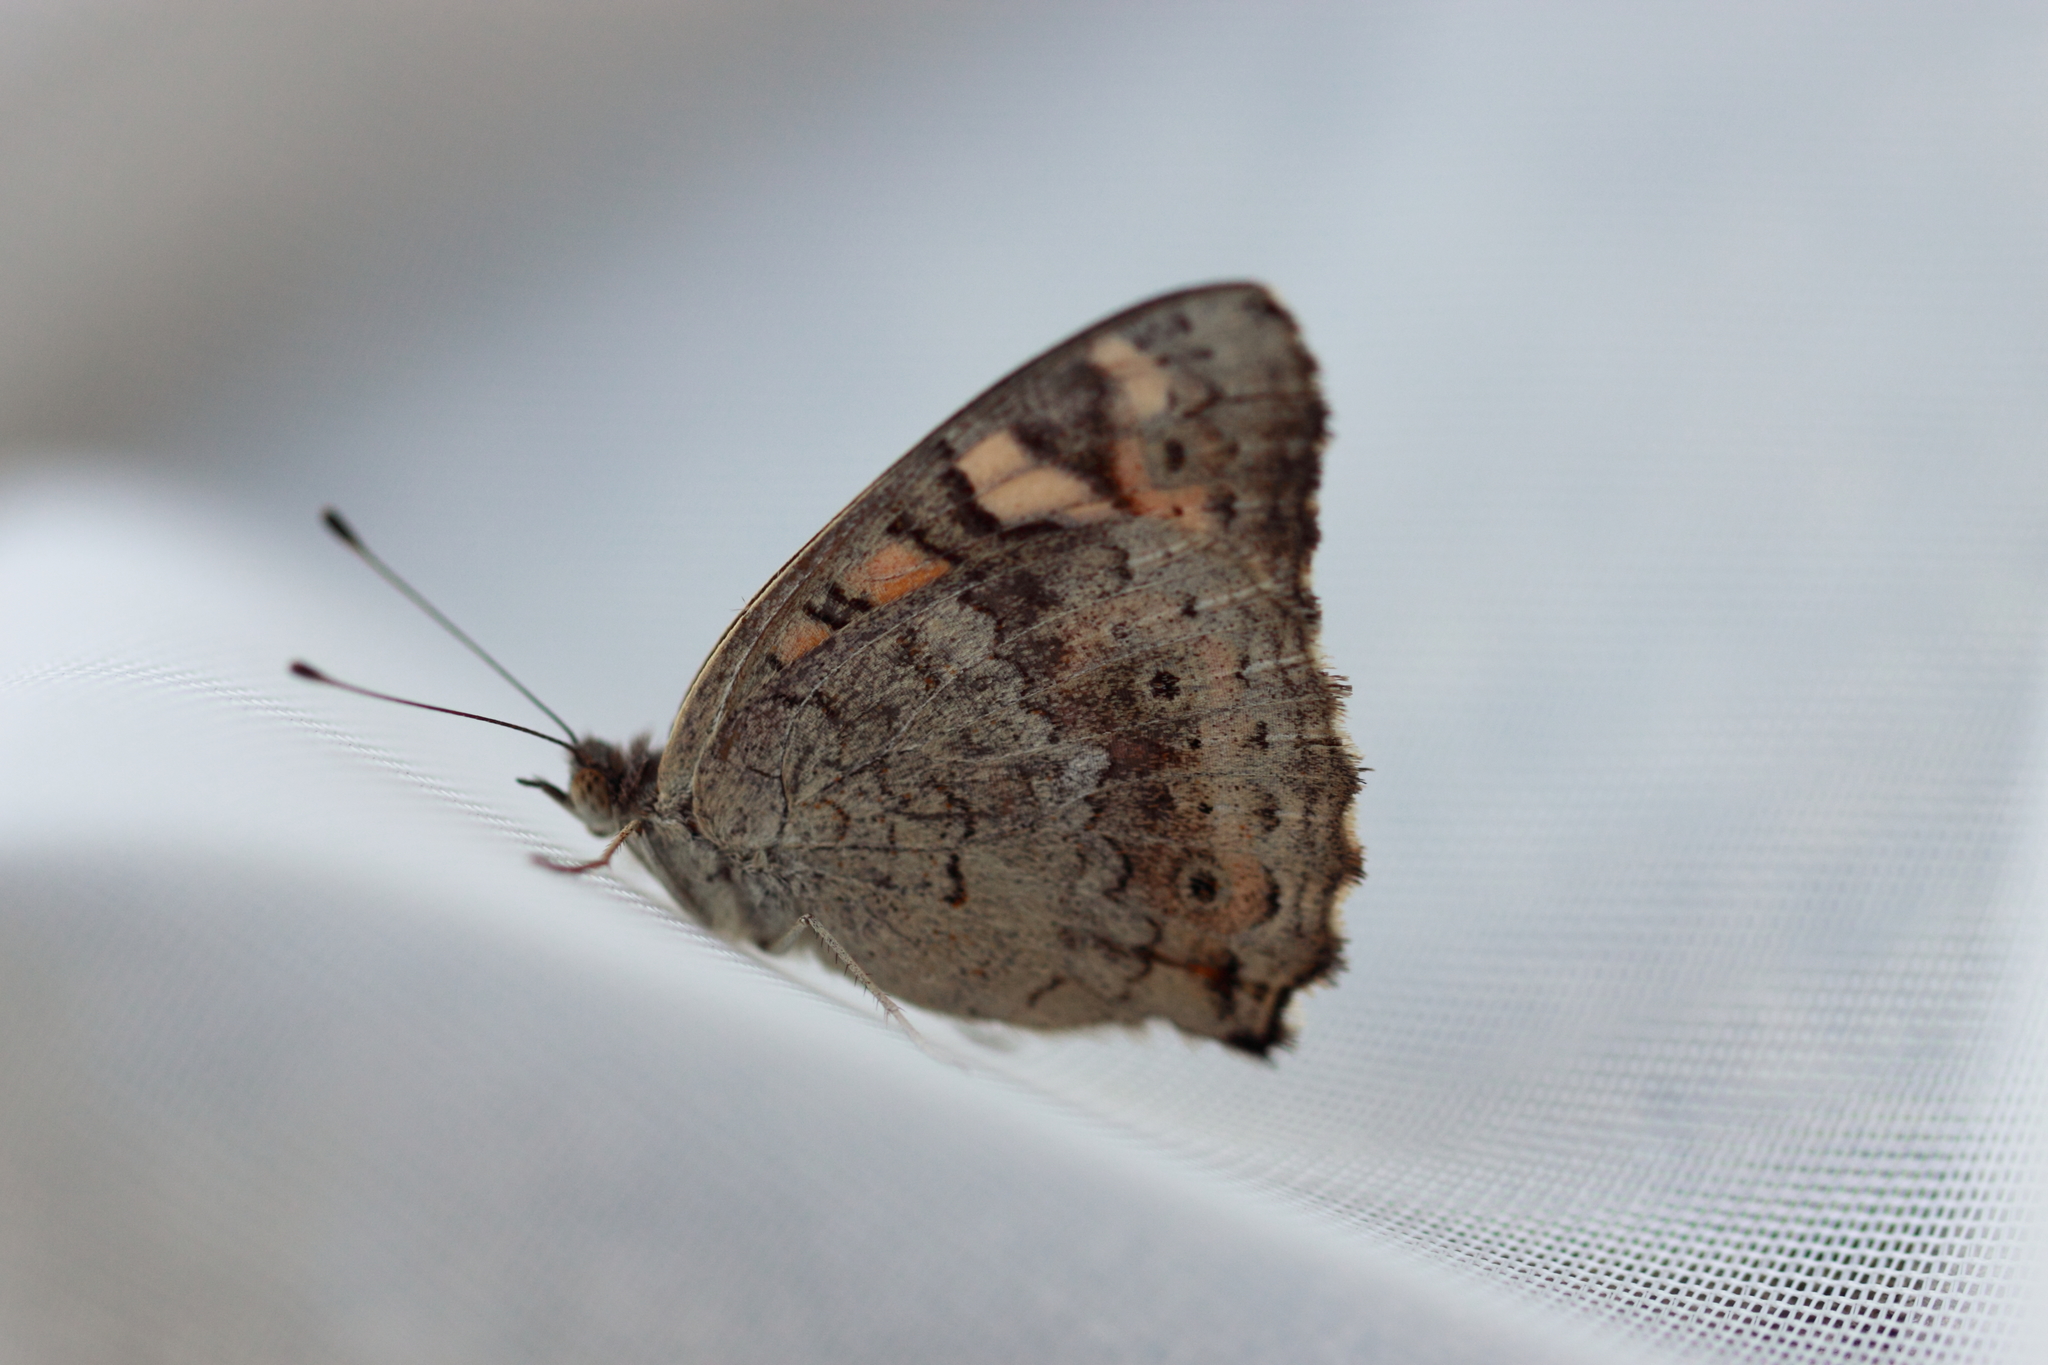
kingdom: Animalia
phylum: Arthropoda
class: Insecta
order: Lepidoptera
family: Nymphalidae
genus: Junonia
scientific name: Junonia villida
